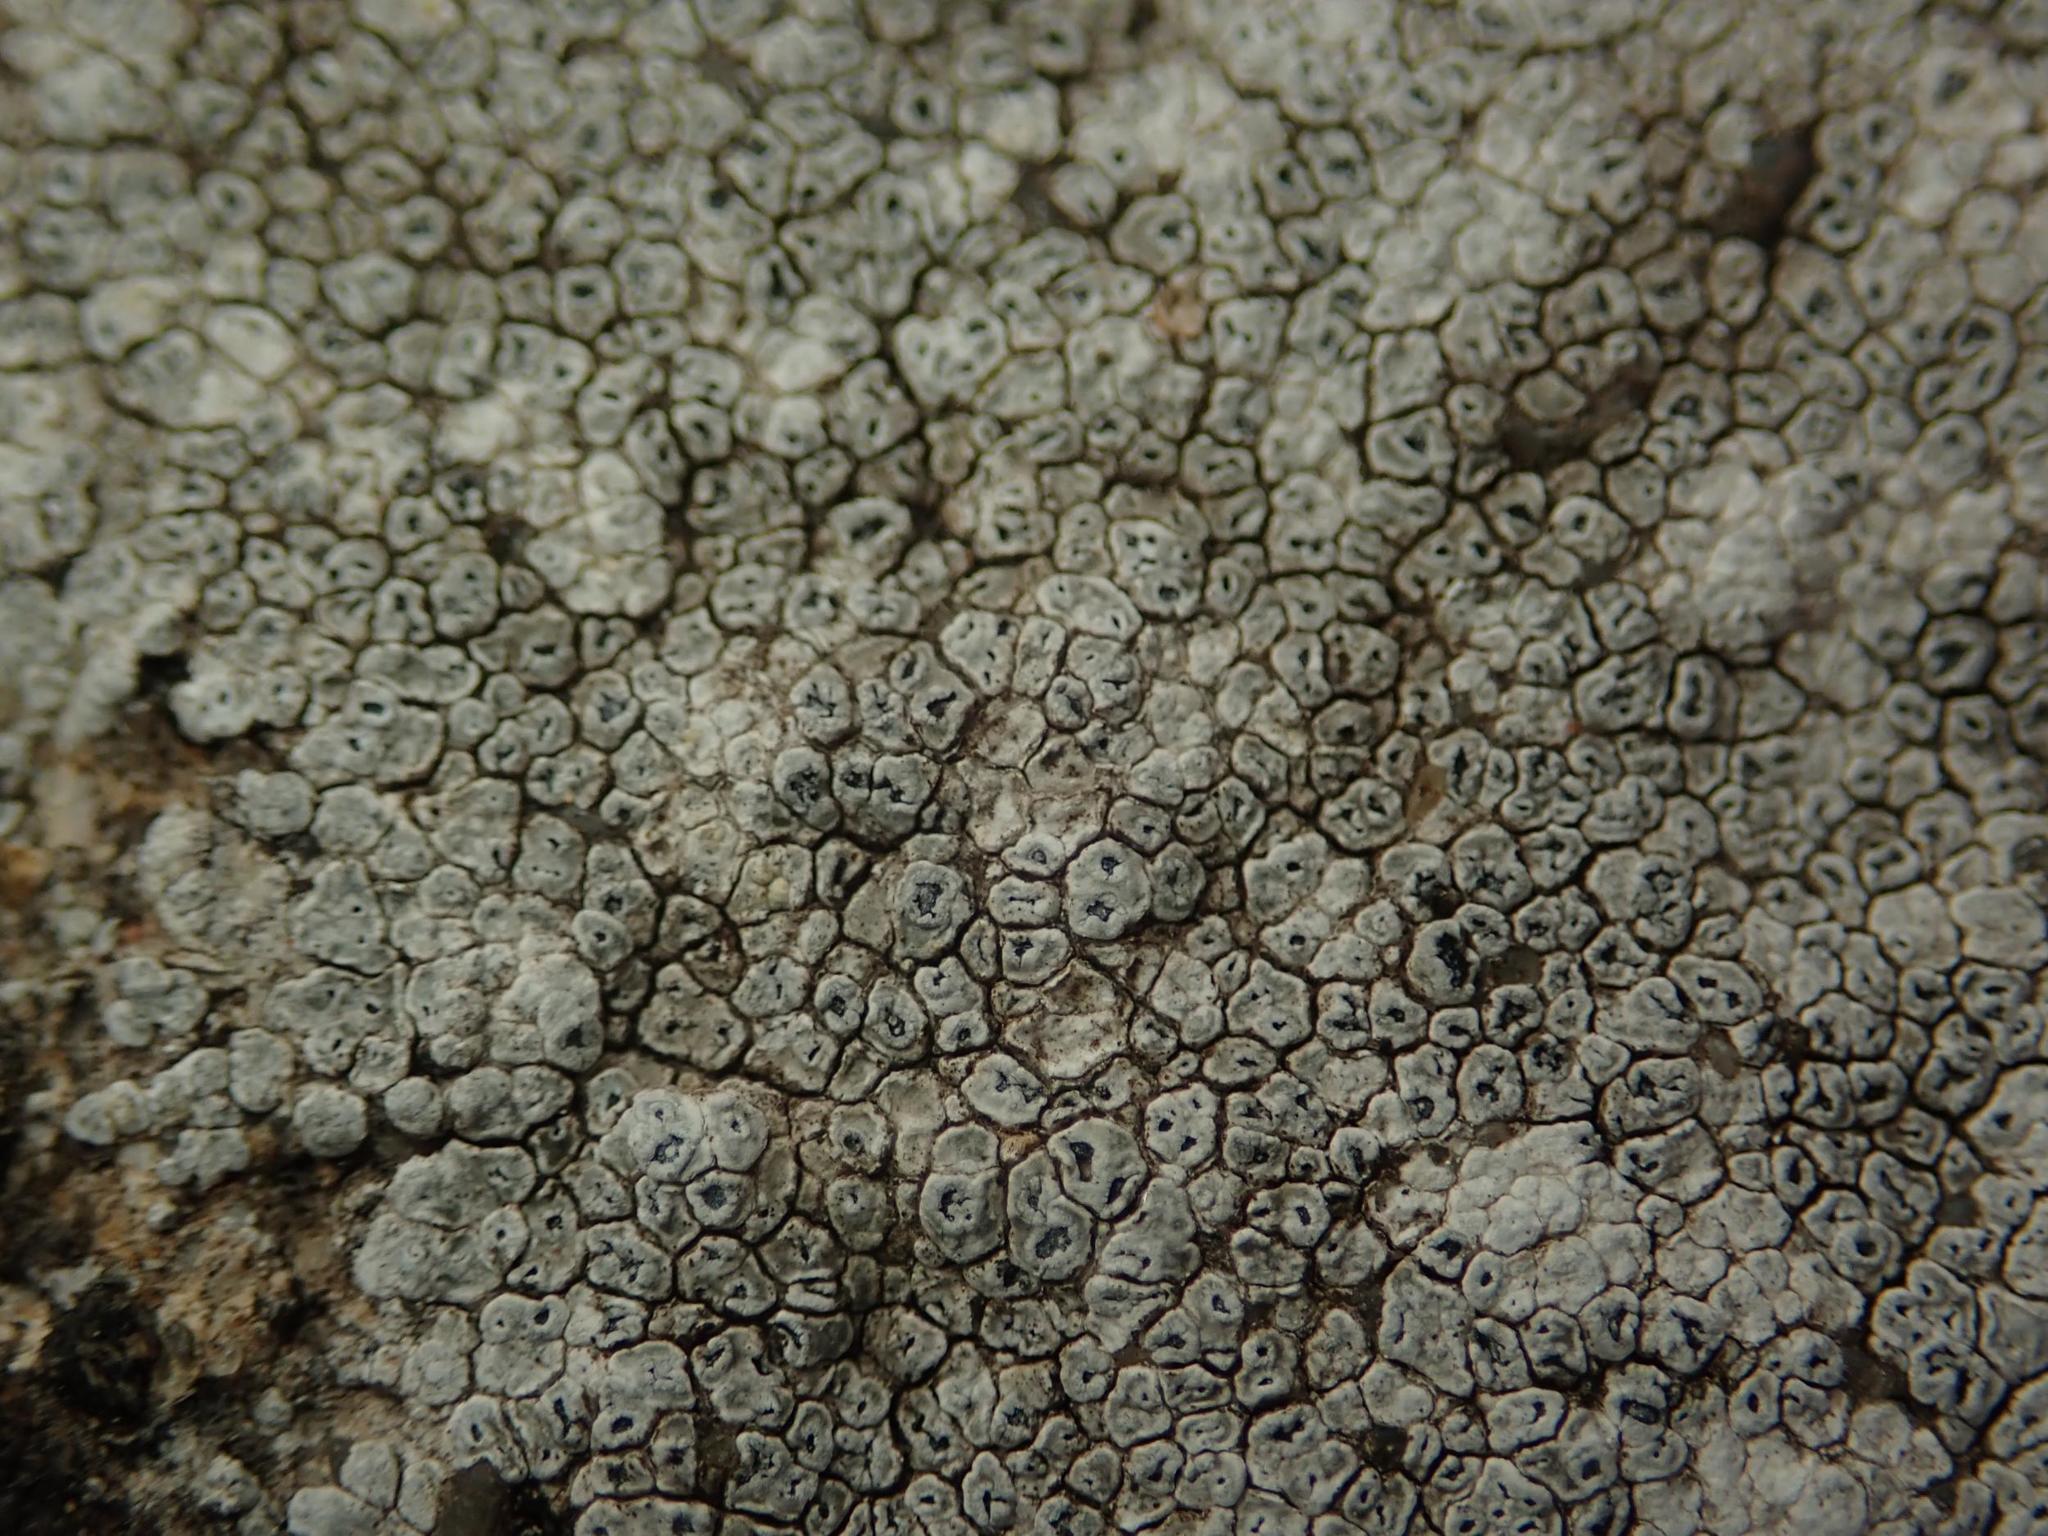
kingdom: Fungi
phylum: Ascomycota
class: Lecanoromycetes
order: Pertusariales
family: Megasporaceae
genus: Circinaria
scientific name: Circinaria contorta
